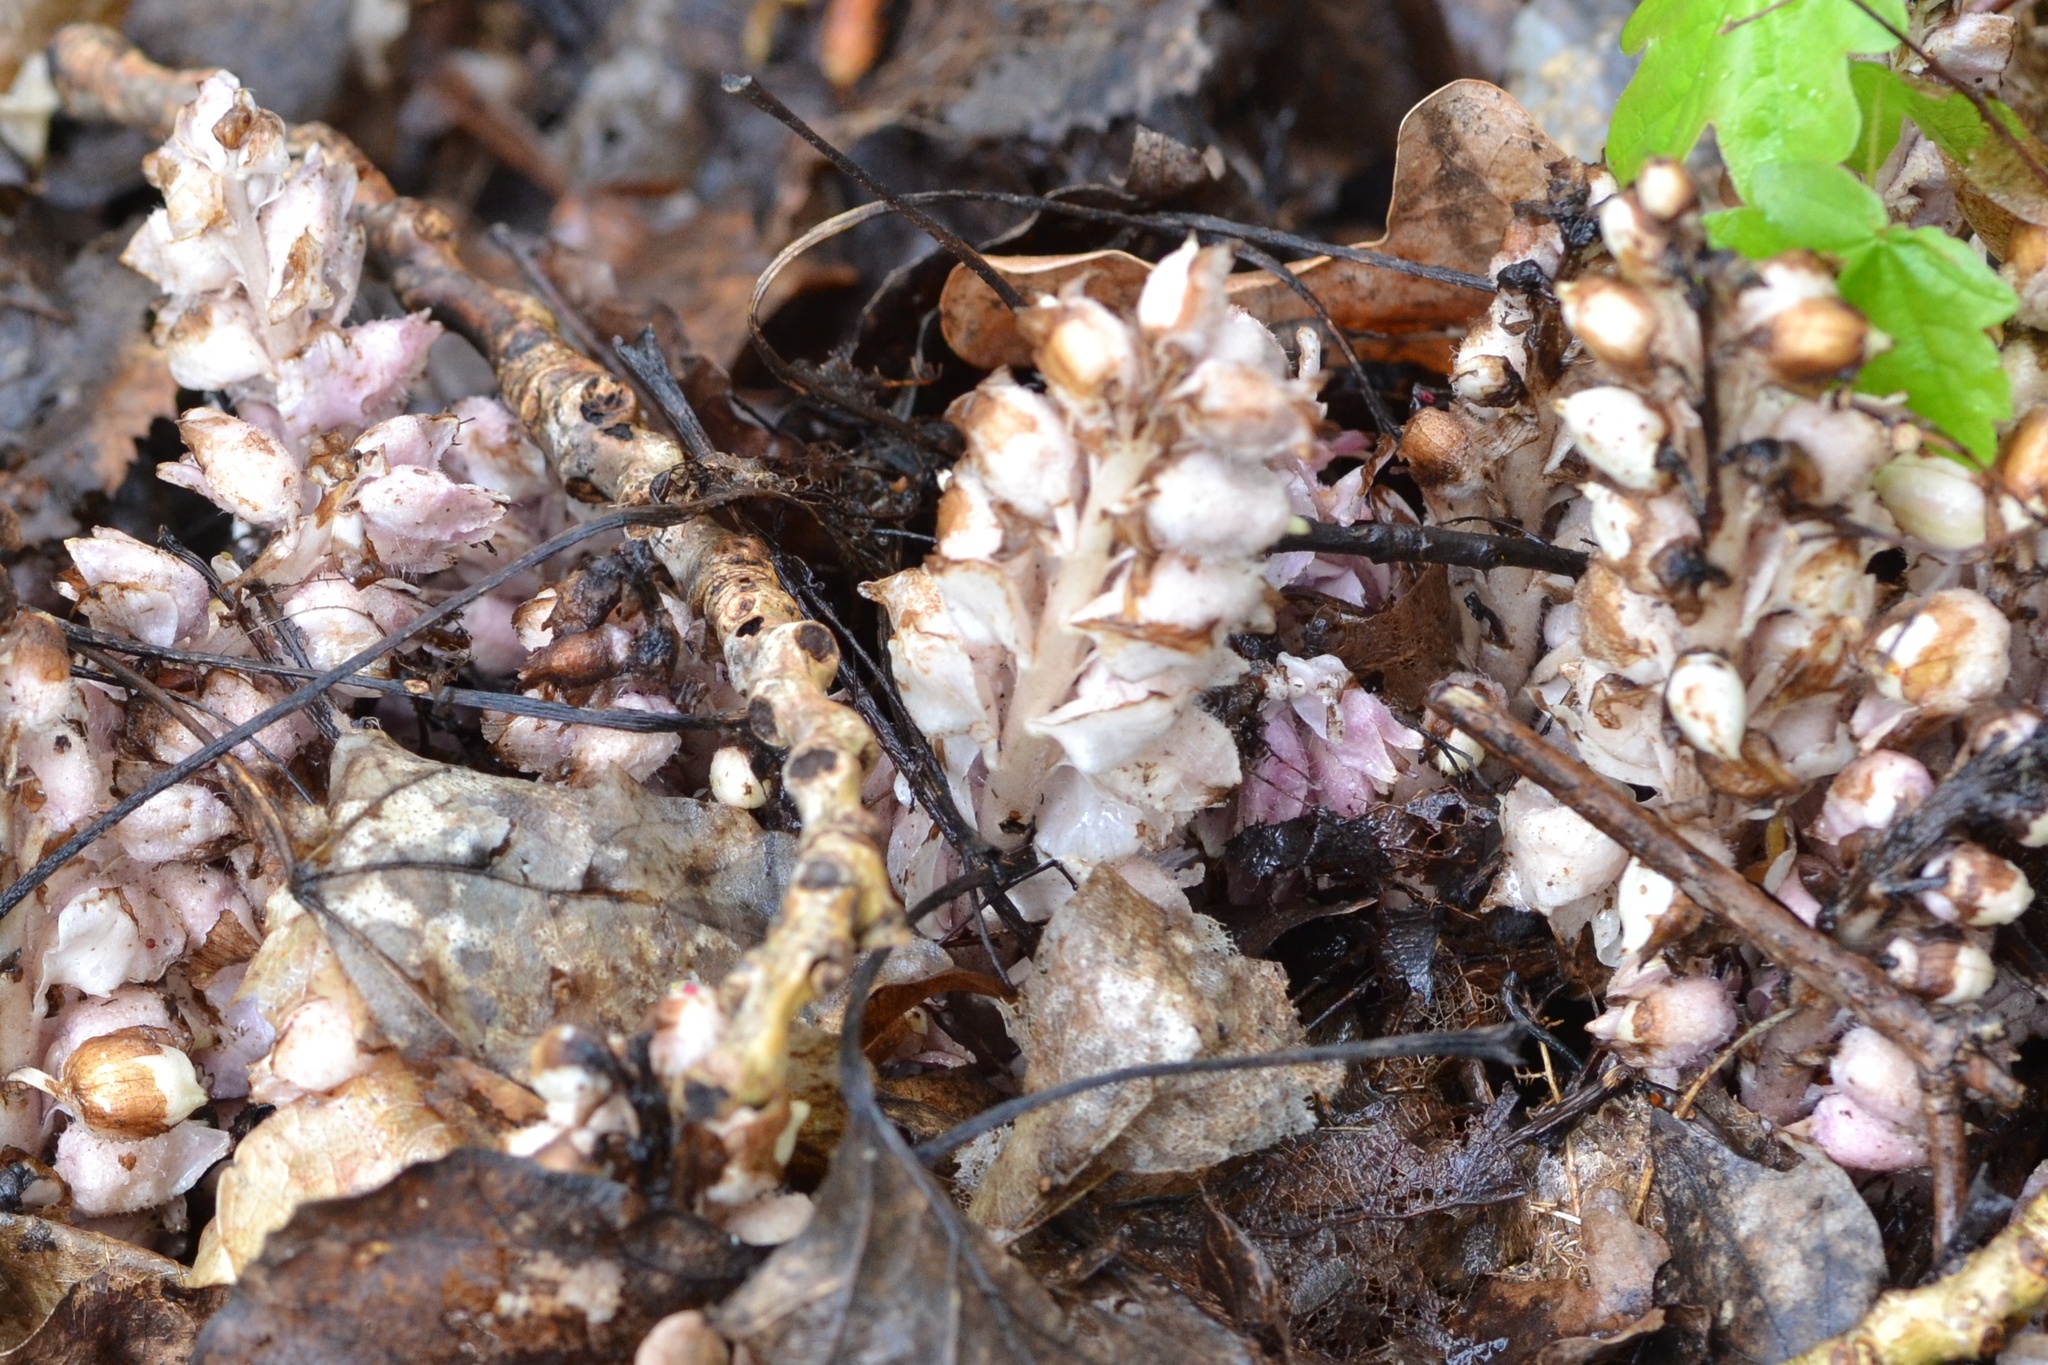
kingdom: Plantae
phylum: Tracheophyta
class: Magnoliopsida
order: Lamiales
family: Orobanchaceae
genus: Lathraea
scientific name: Lathraea squamaria
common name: Toothwort
